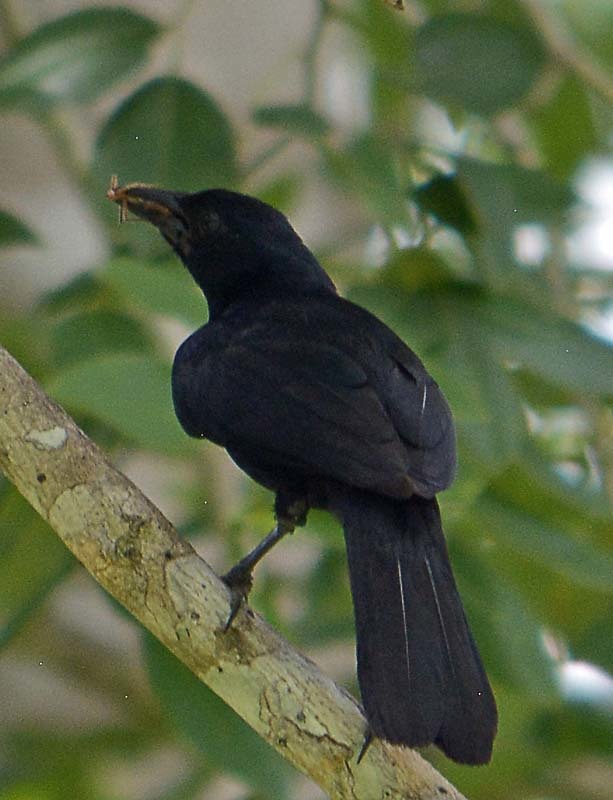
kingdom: Animalia
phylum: Chordata
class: Aves
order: Passeriformes
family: Mimidae
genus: Melanoptila
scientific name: Melanoptila glabrirostris
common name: Black catbird
